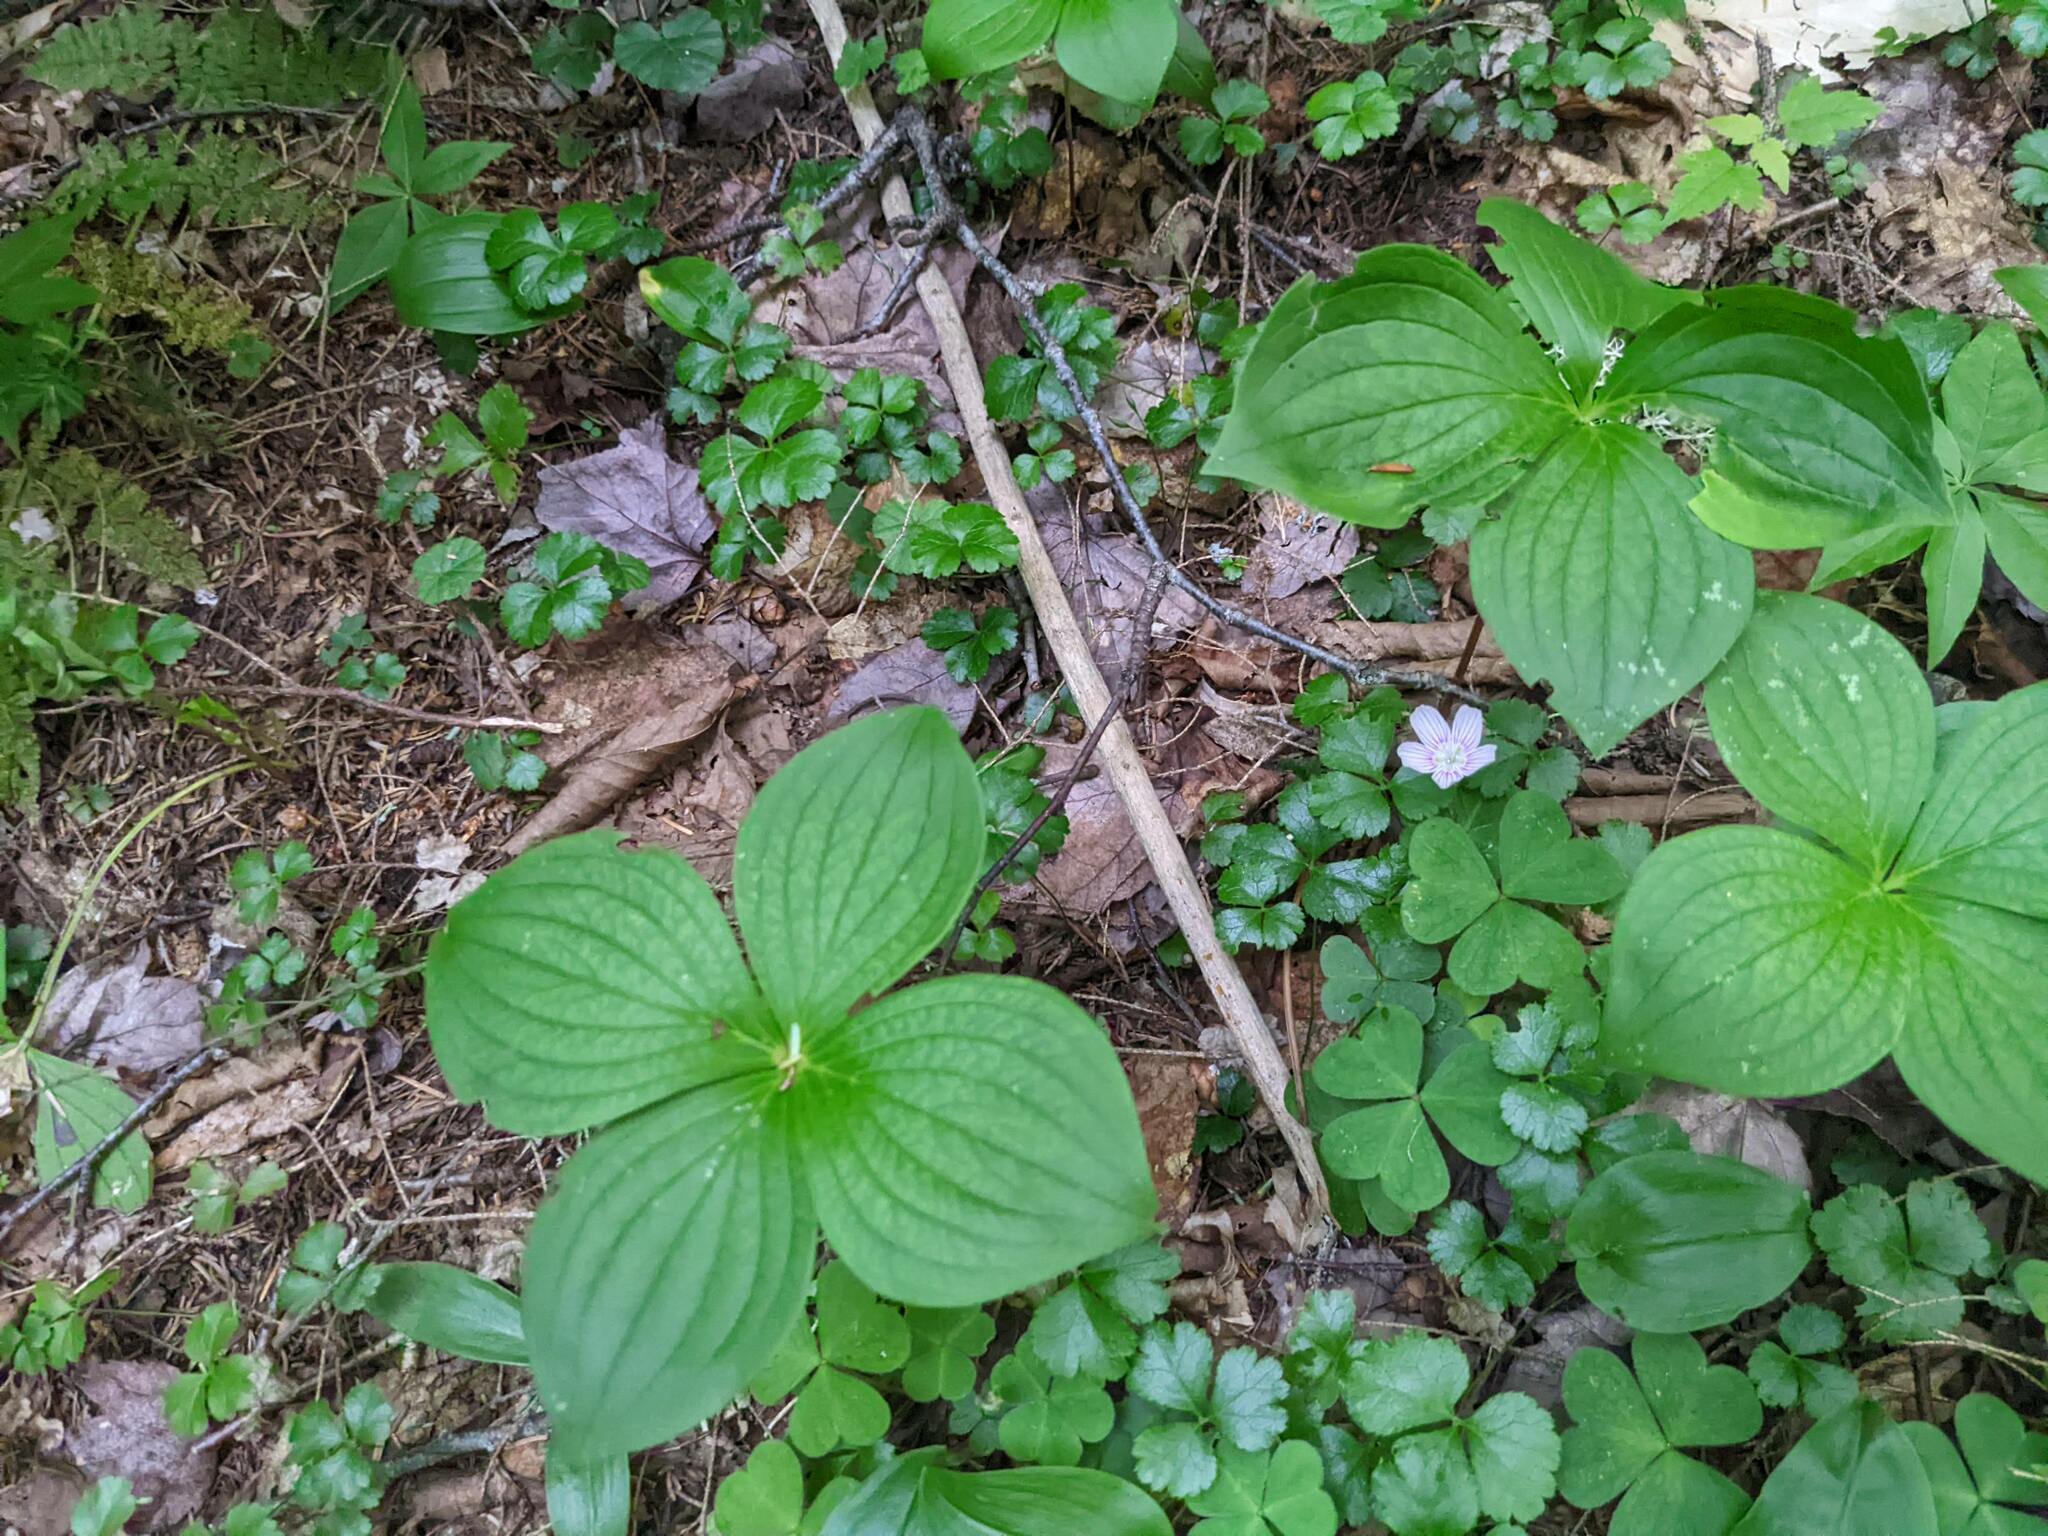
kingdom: Plantae
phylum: Tracheophyta
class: Magnoliopsida
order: Cornales
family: Cornaceae
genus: Cornus
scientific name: Cornus canadensis
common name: Creeping dogwood
